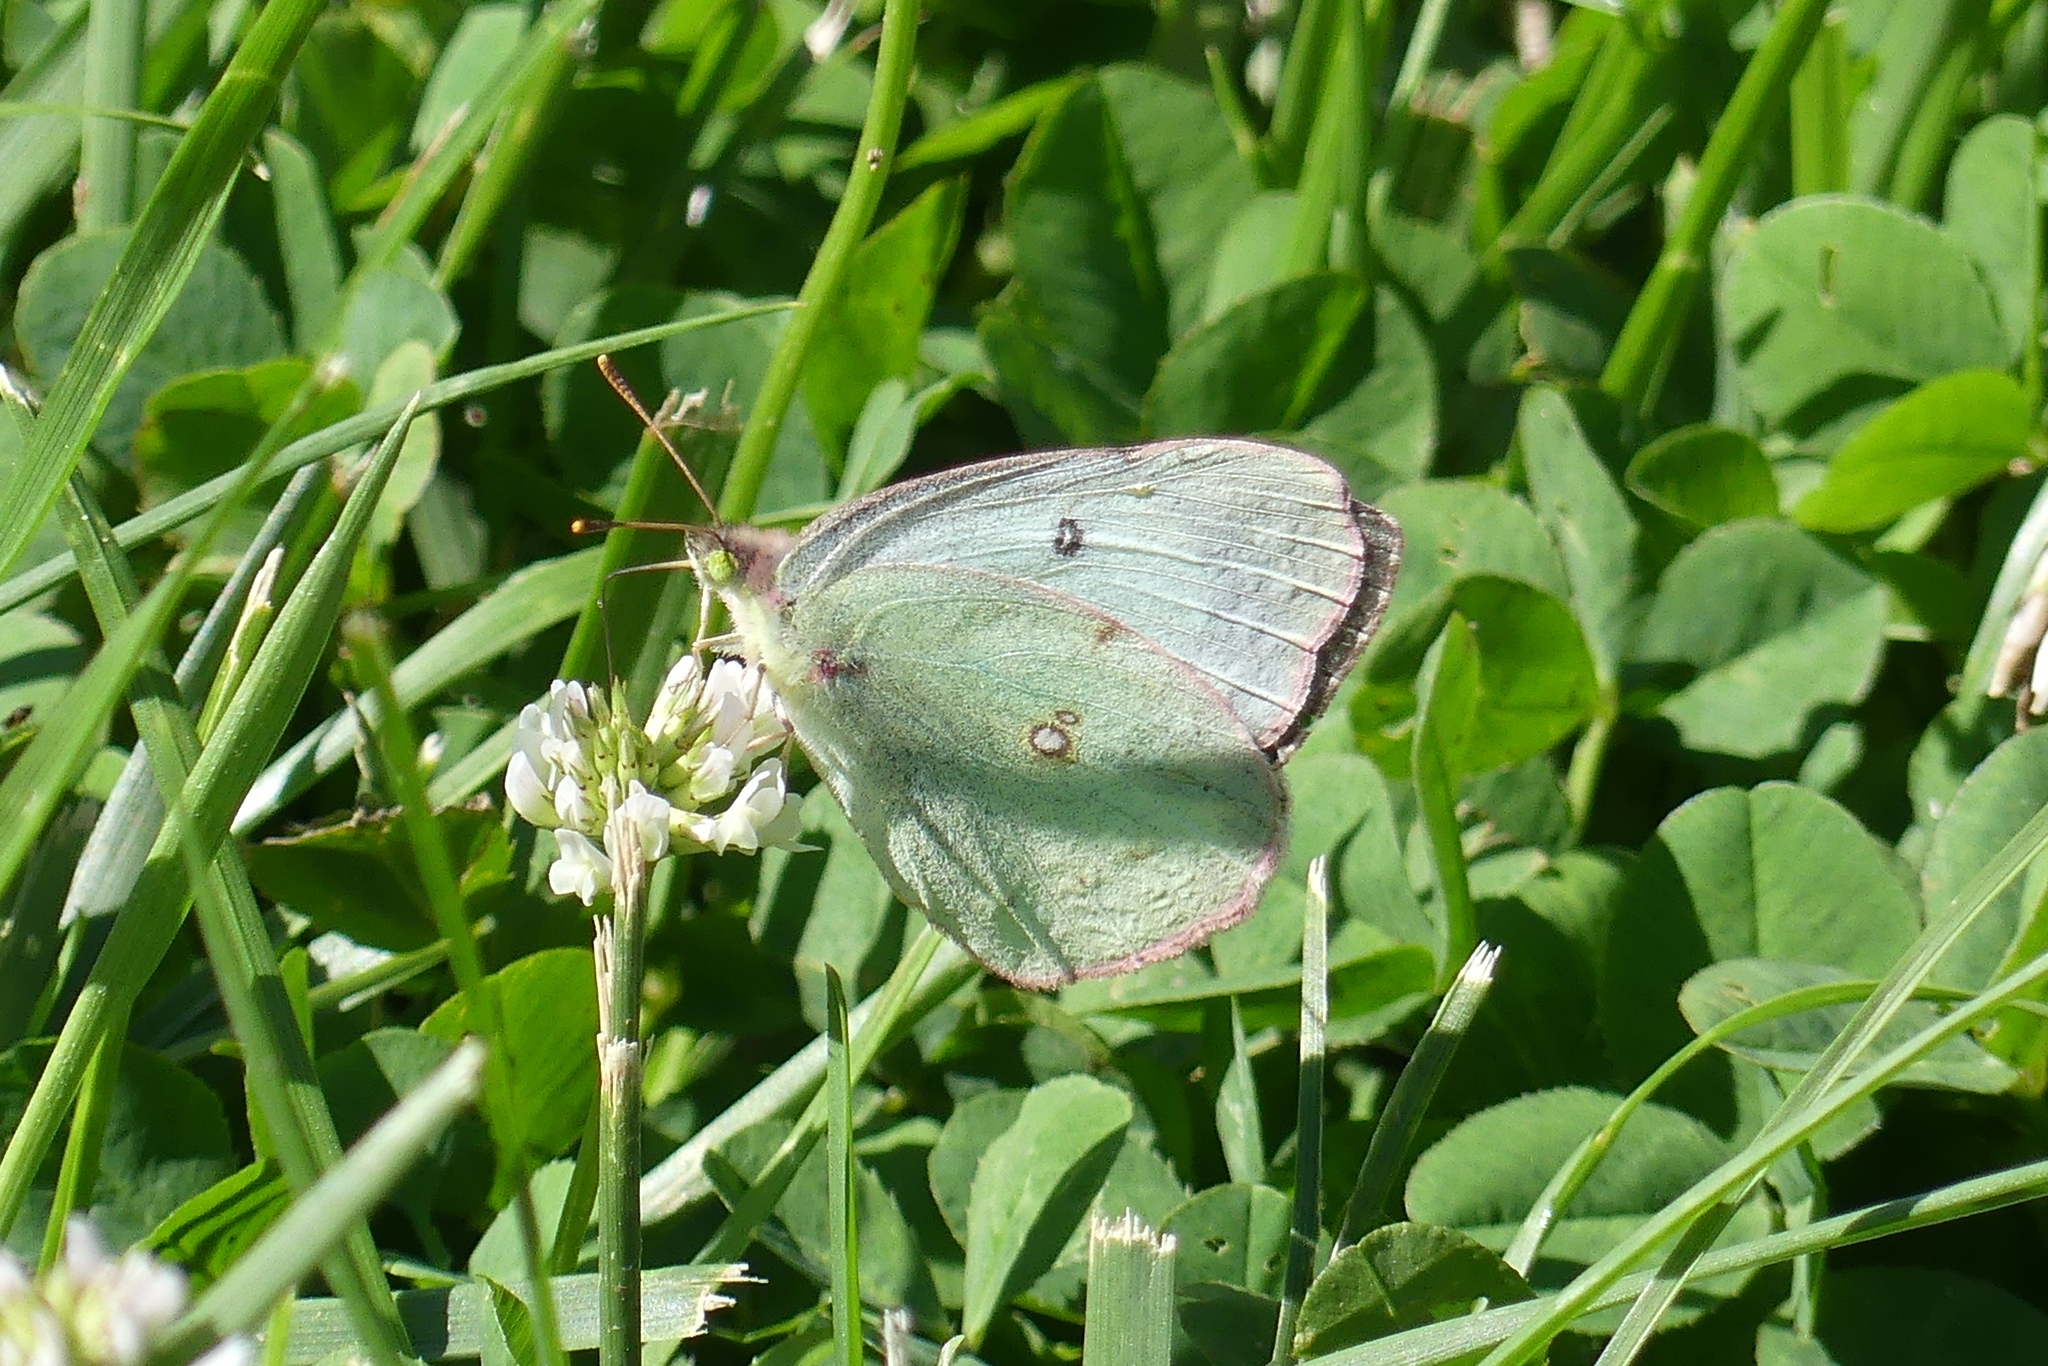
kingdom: Animalia
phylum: Arthropoda
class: Insecta
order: Lepidoptera
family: Pieridae
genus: Colias
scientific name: Colias philodice
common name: Clouded sulphur
